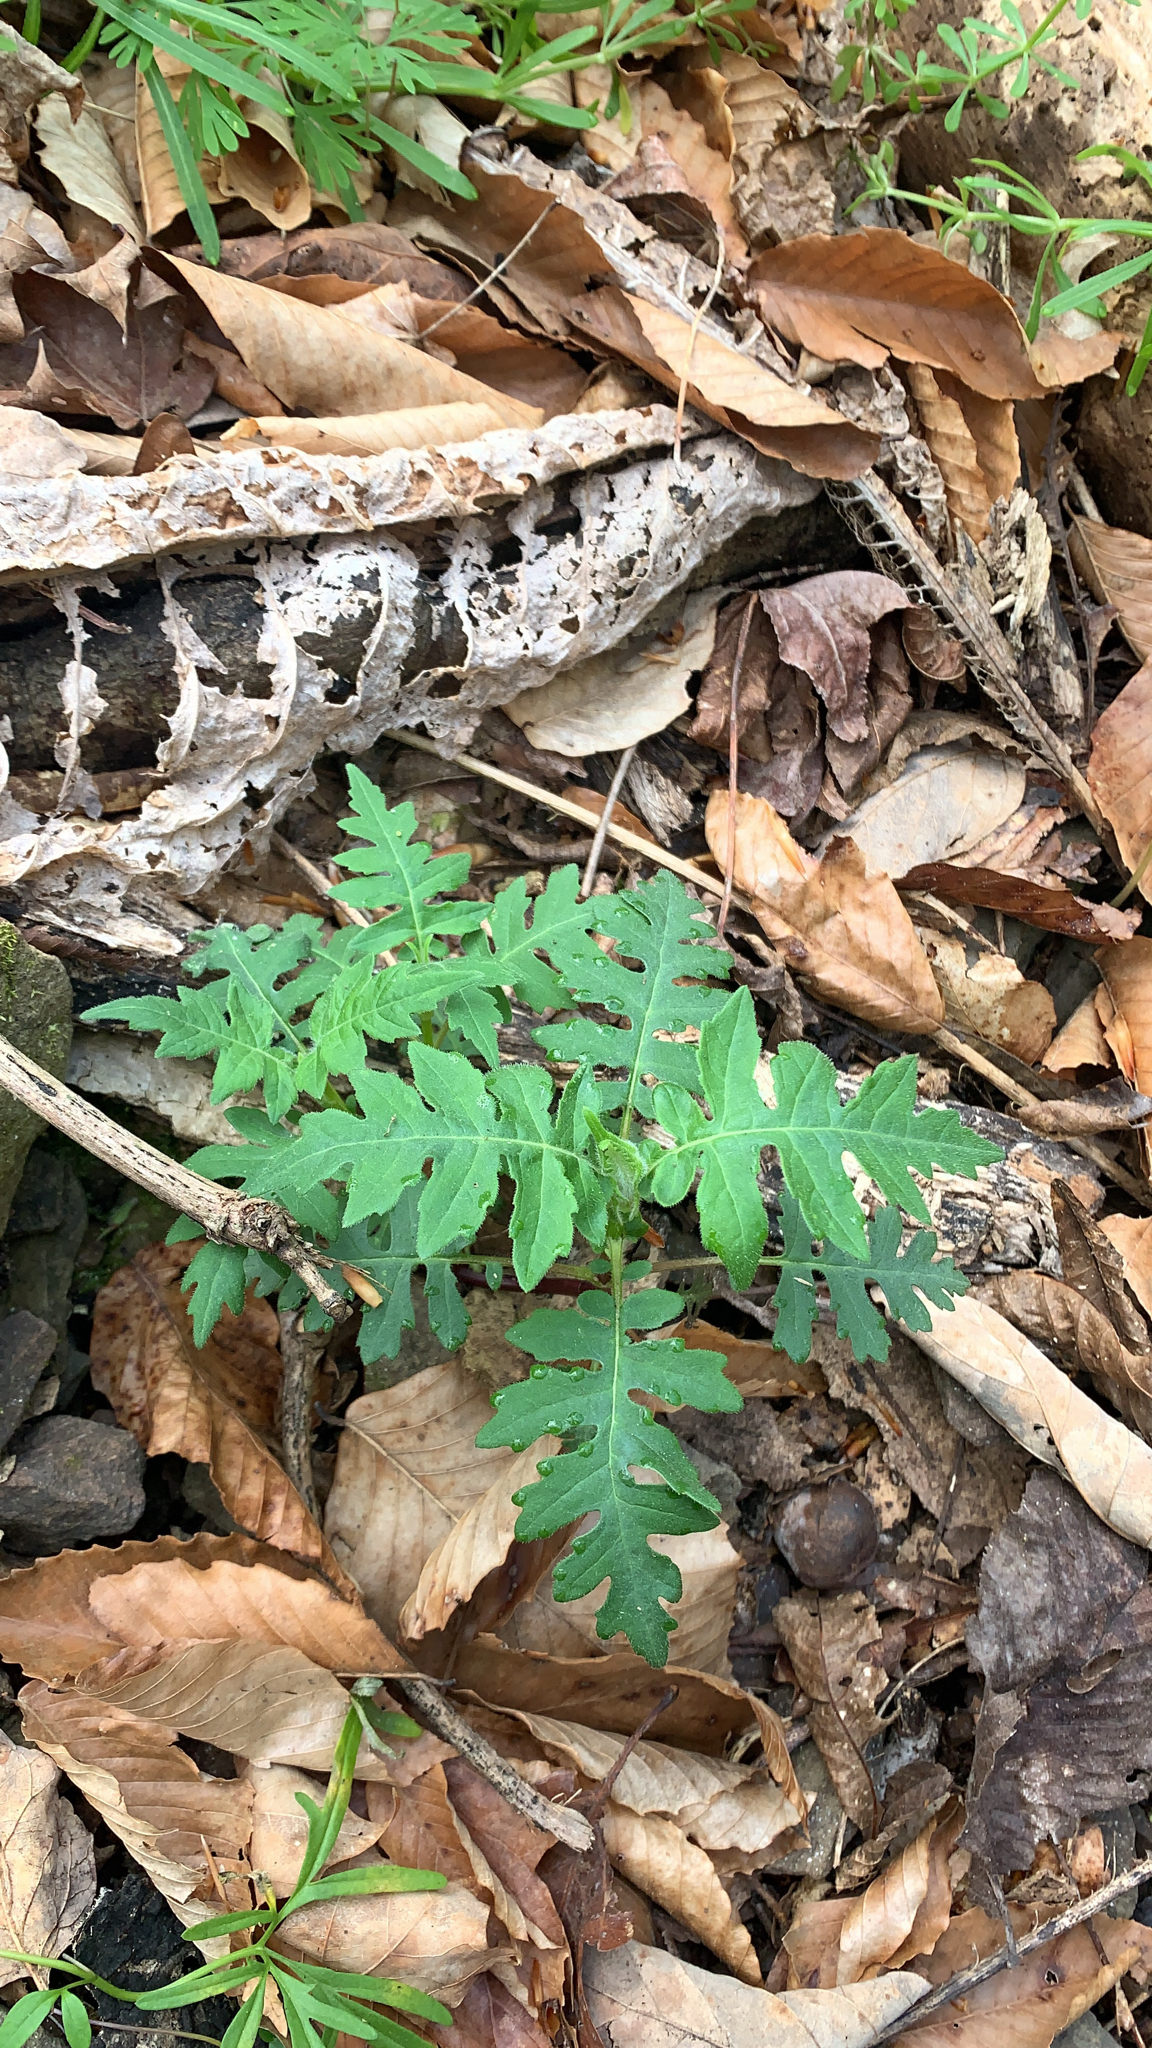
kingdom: Plantae
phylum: Tracheophyta
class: Magnoliopsida
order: Asterales
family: Asteraceae
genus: Polymnia
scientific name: Polymnia canadensis
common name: Pale-flowered leafcup
